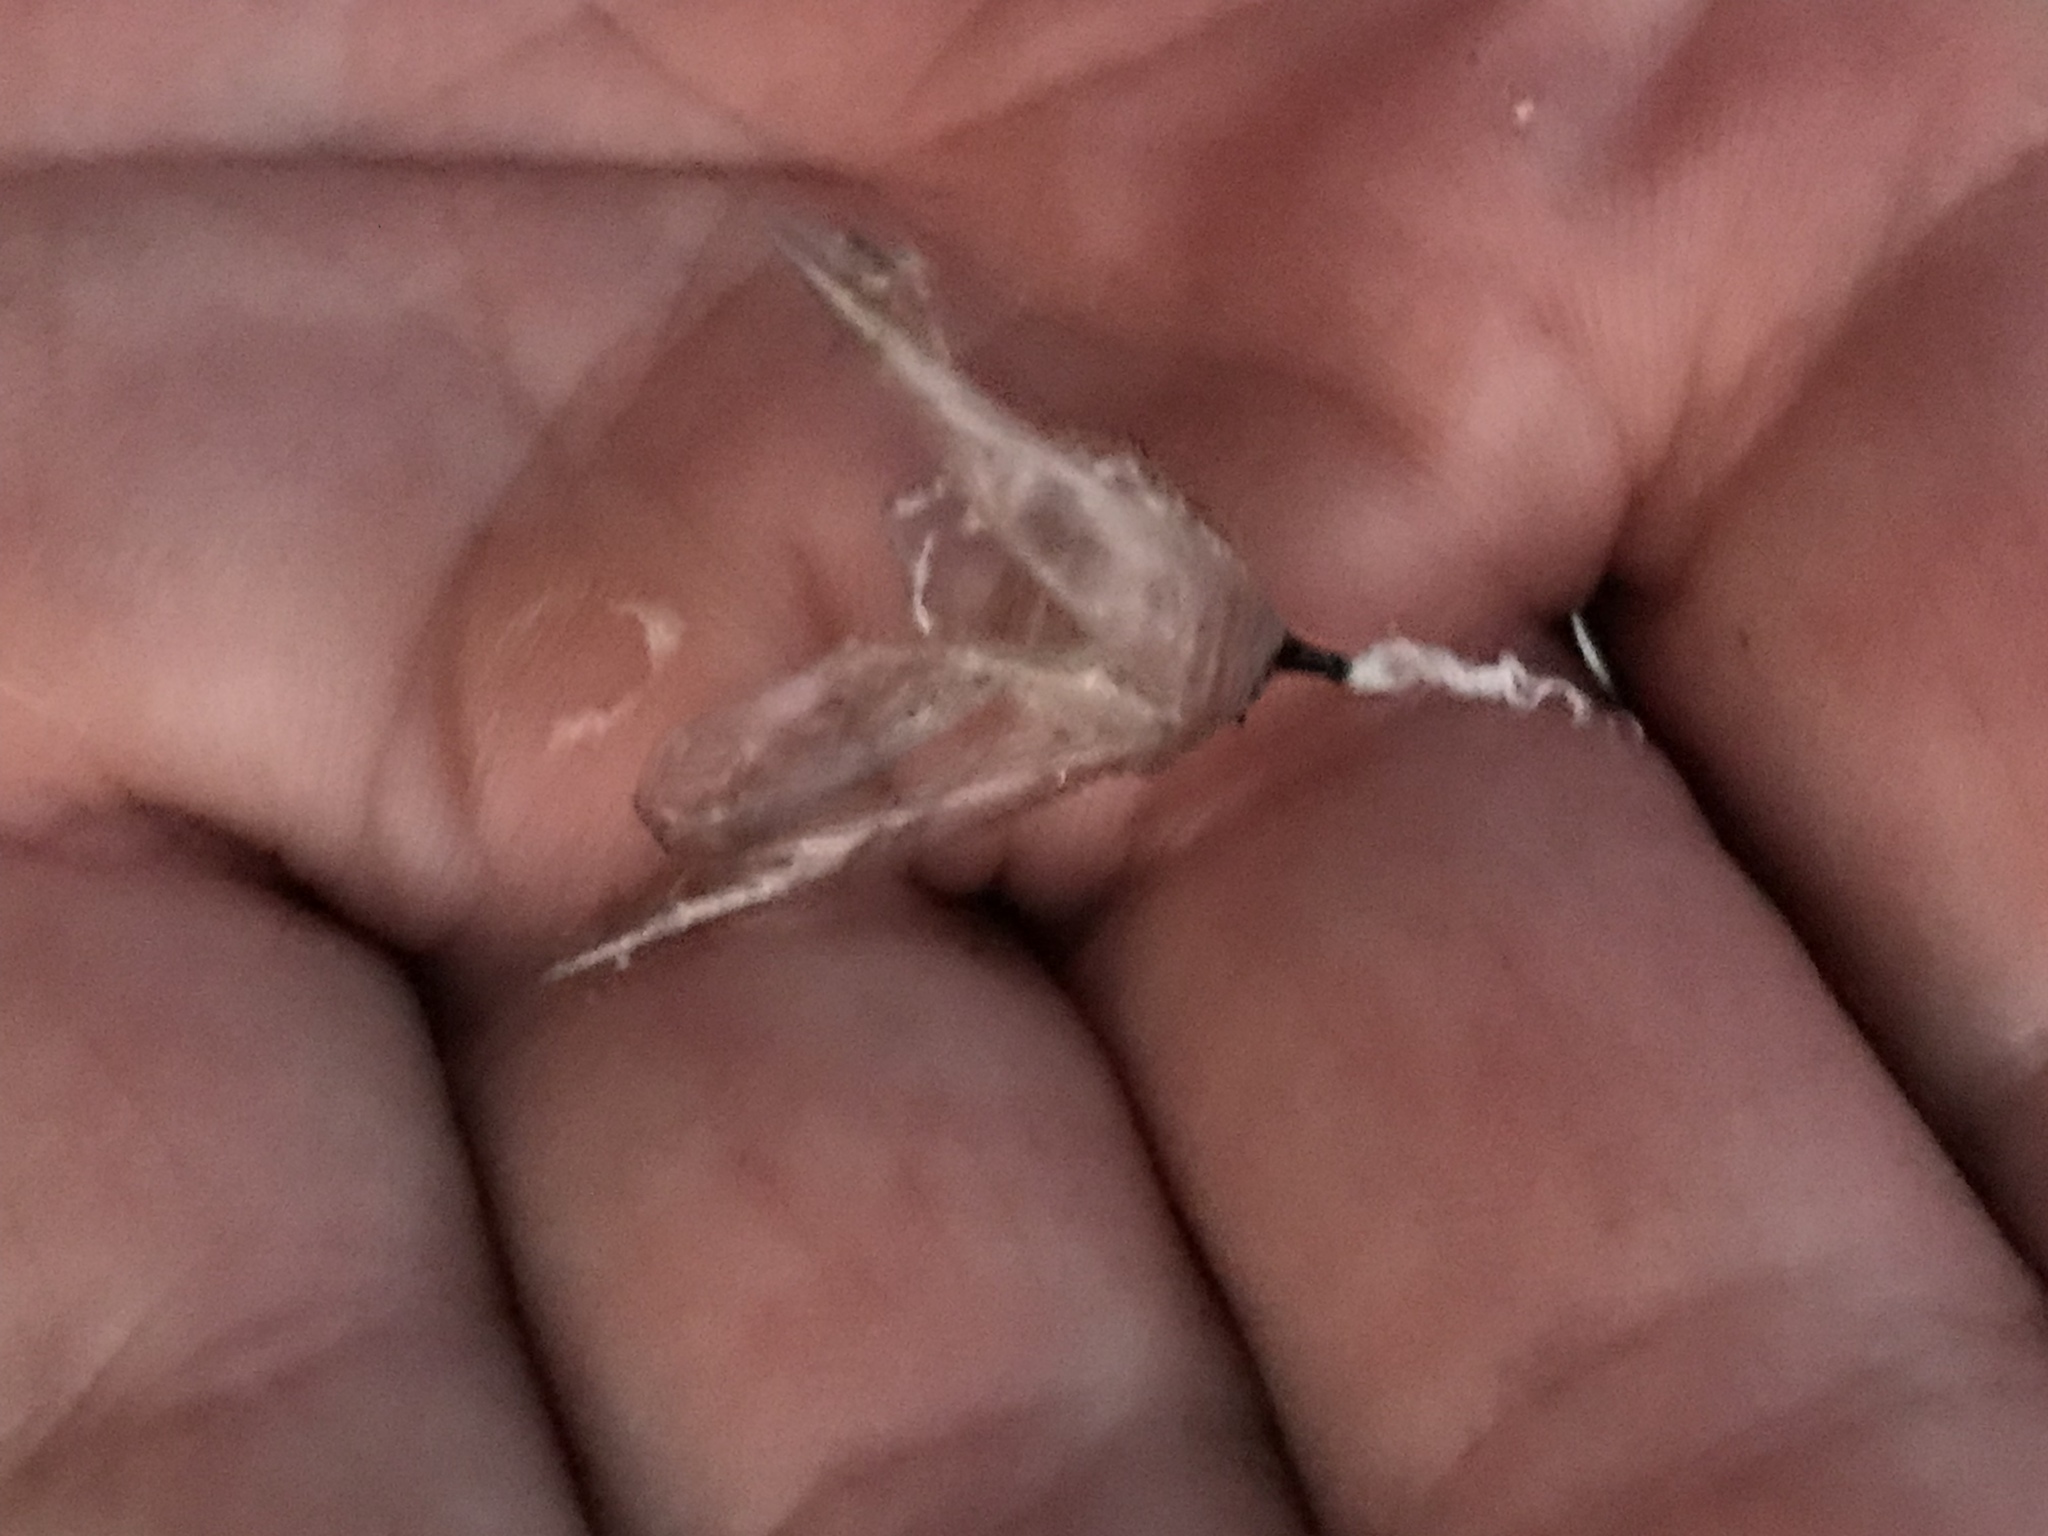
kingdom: Animalia
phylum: Arthropoda
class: Insecta
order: Lepidoptera
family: Nymphalidae
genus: Danaus
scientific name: Danaus plexippus
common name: Monarch
